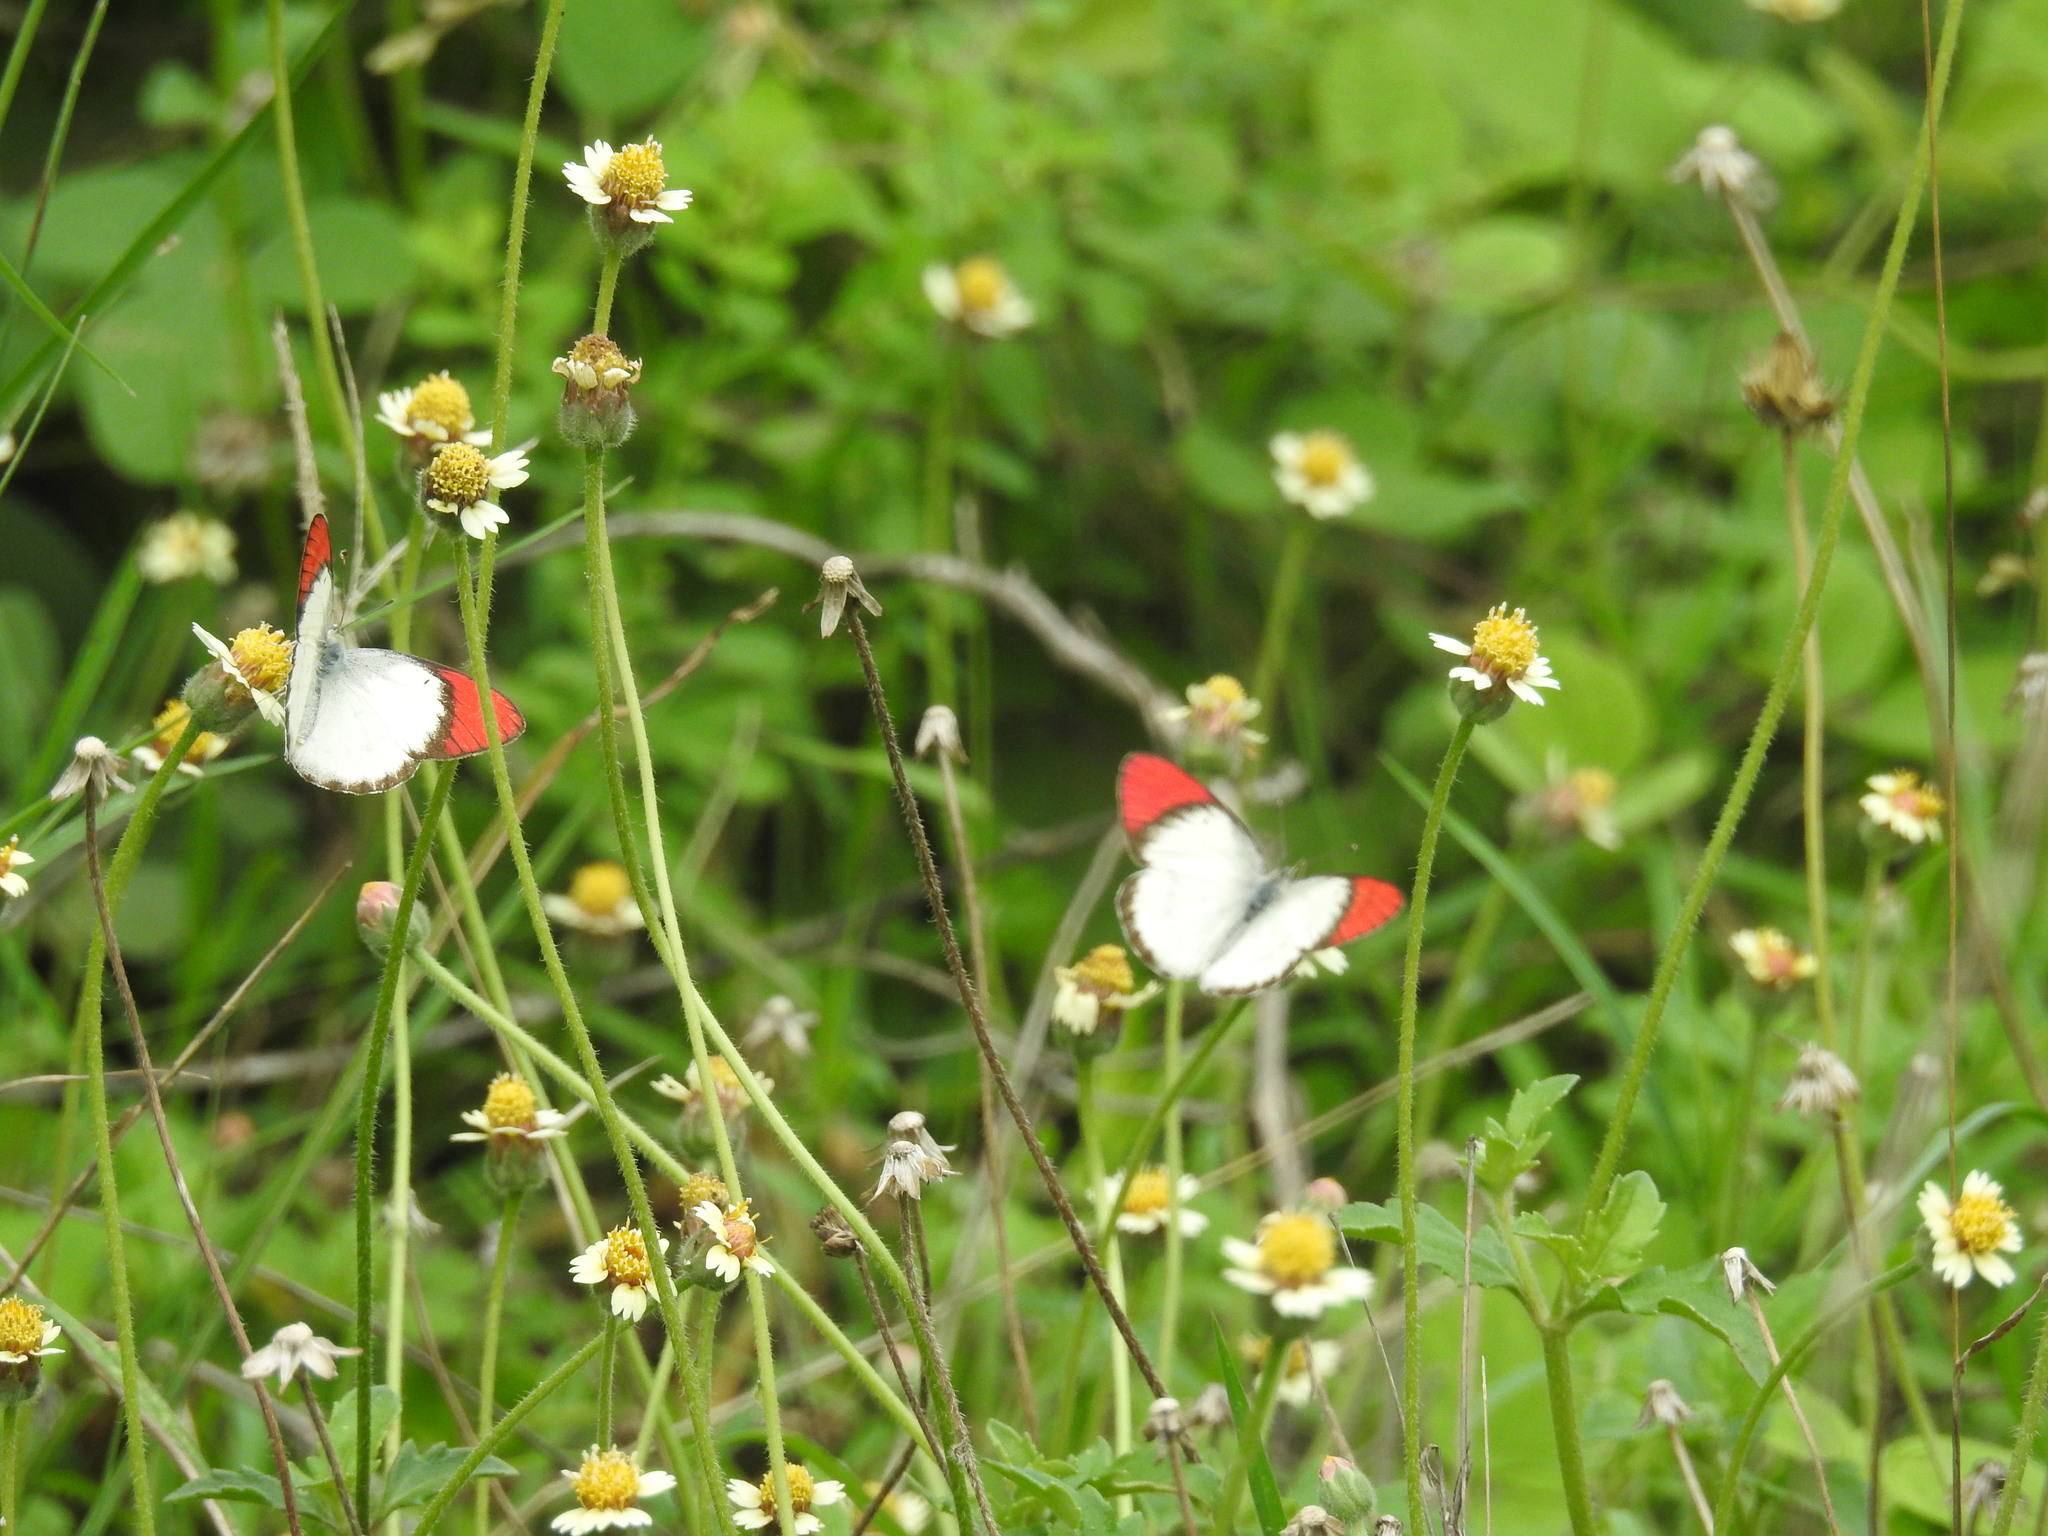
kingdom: Animalia
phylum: Arthropoda
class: Insecta
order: Lepidoptera
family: Pieridae
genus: Colotis
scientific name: Colotis danae
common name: Crimson tip
